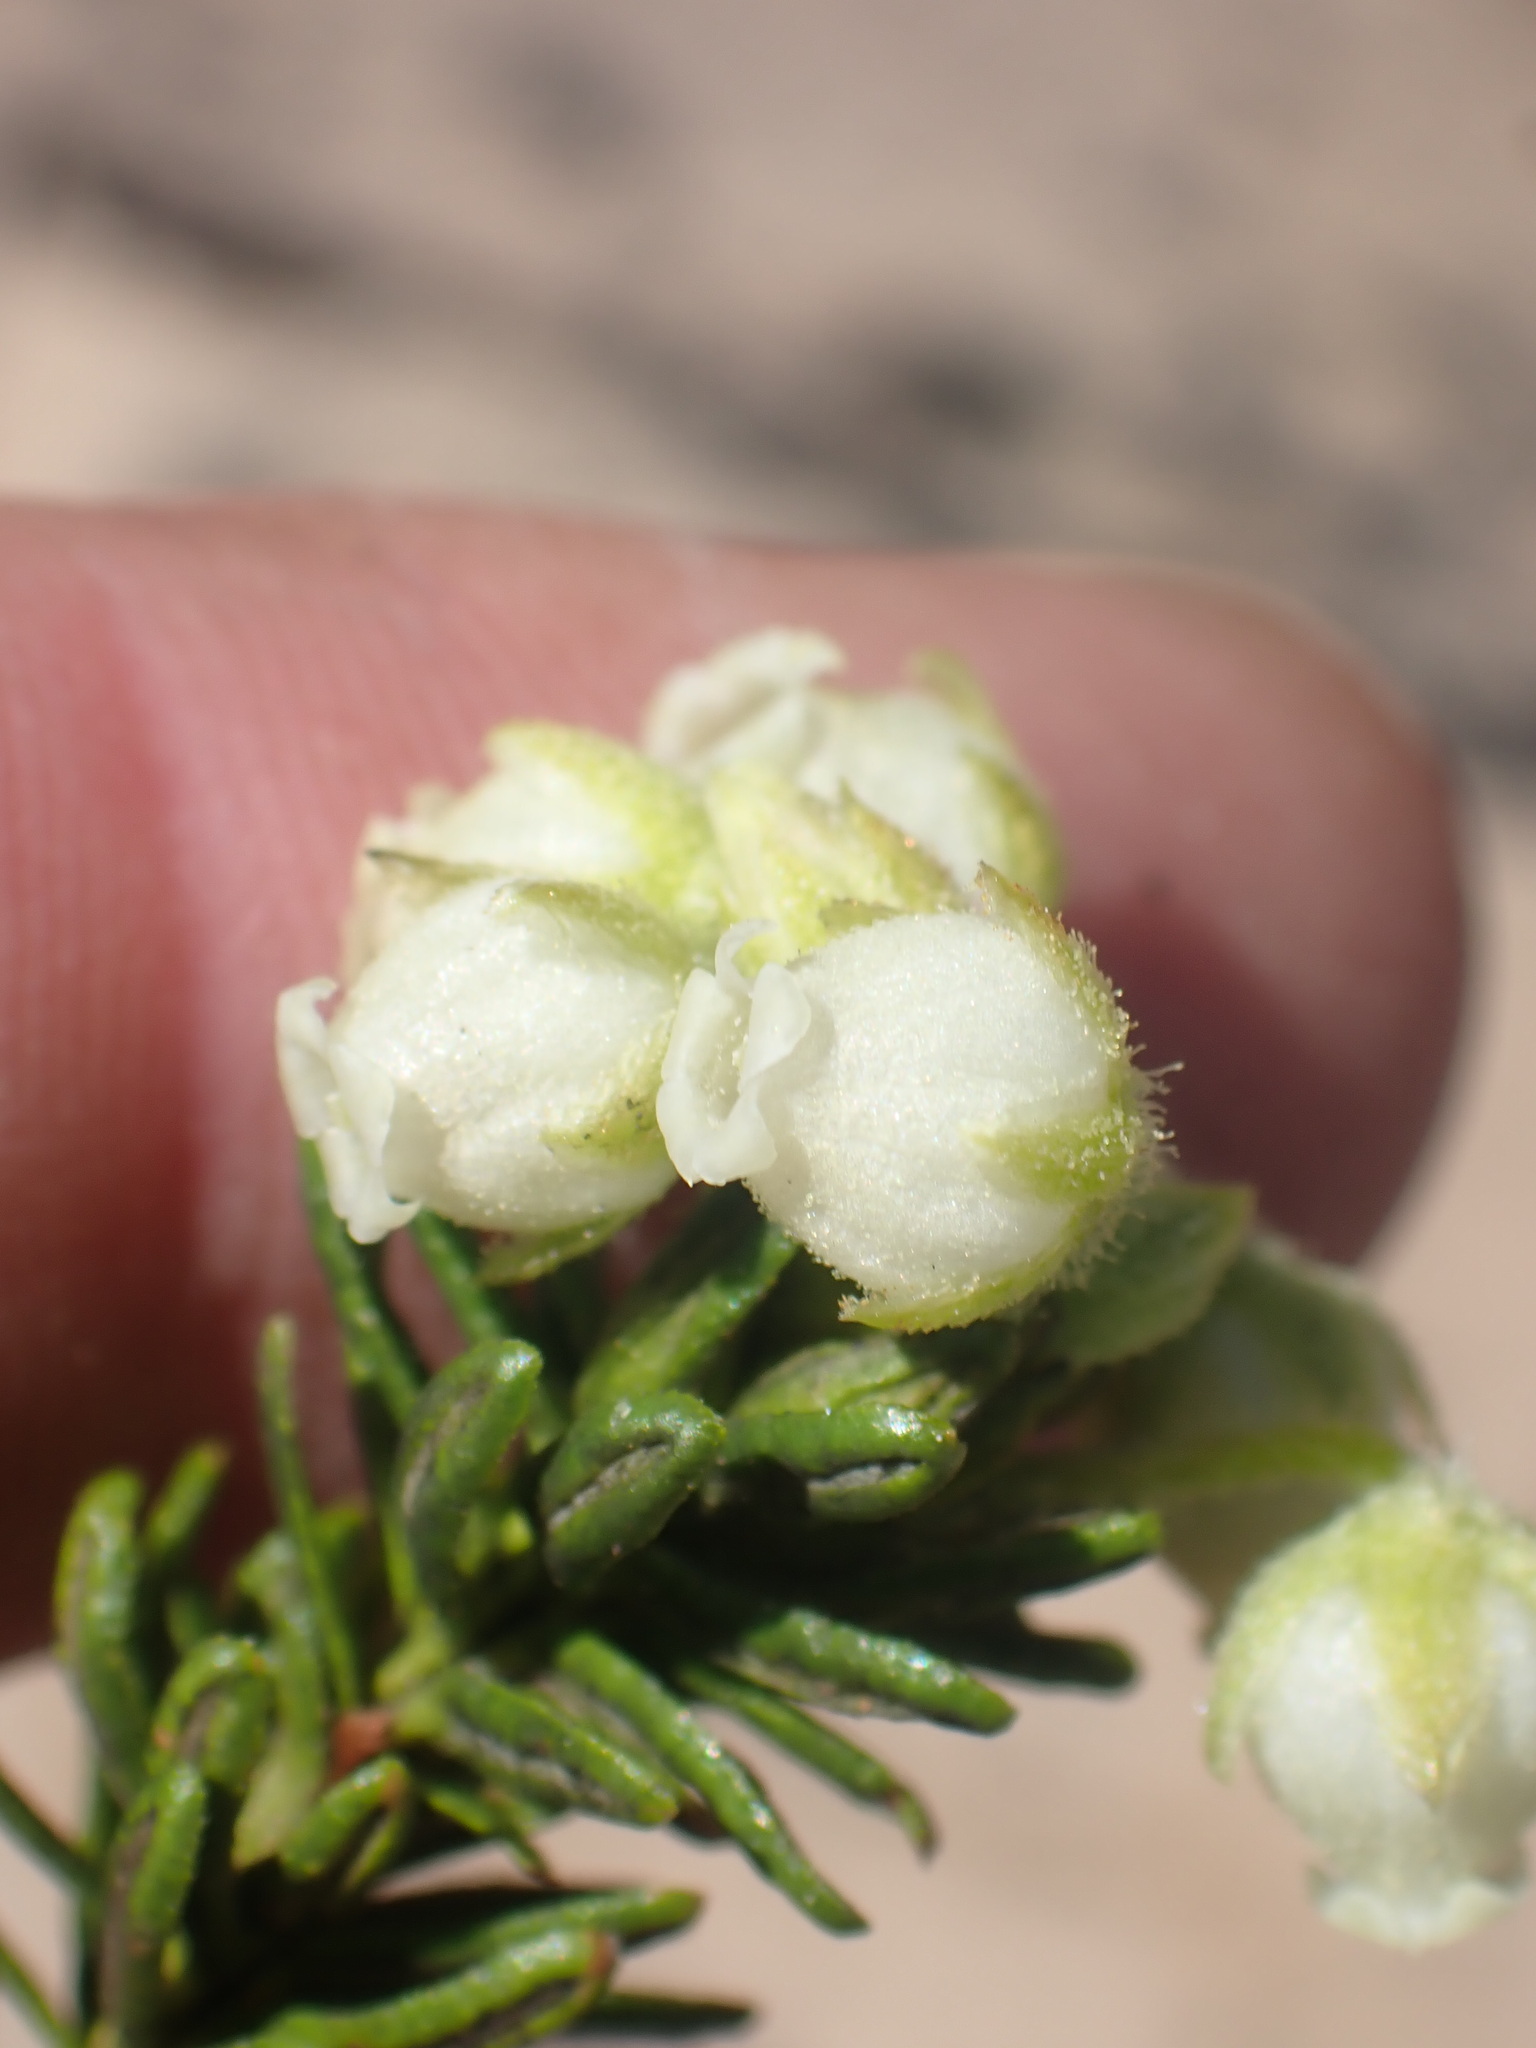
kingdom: Plantae
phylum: Tracheophyta
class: Magnoliopsida
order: Ericales
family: Ericaceae
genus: Phyllodoce
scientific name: Phyllodoce glanduliflora
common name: Cream mountain heather
